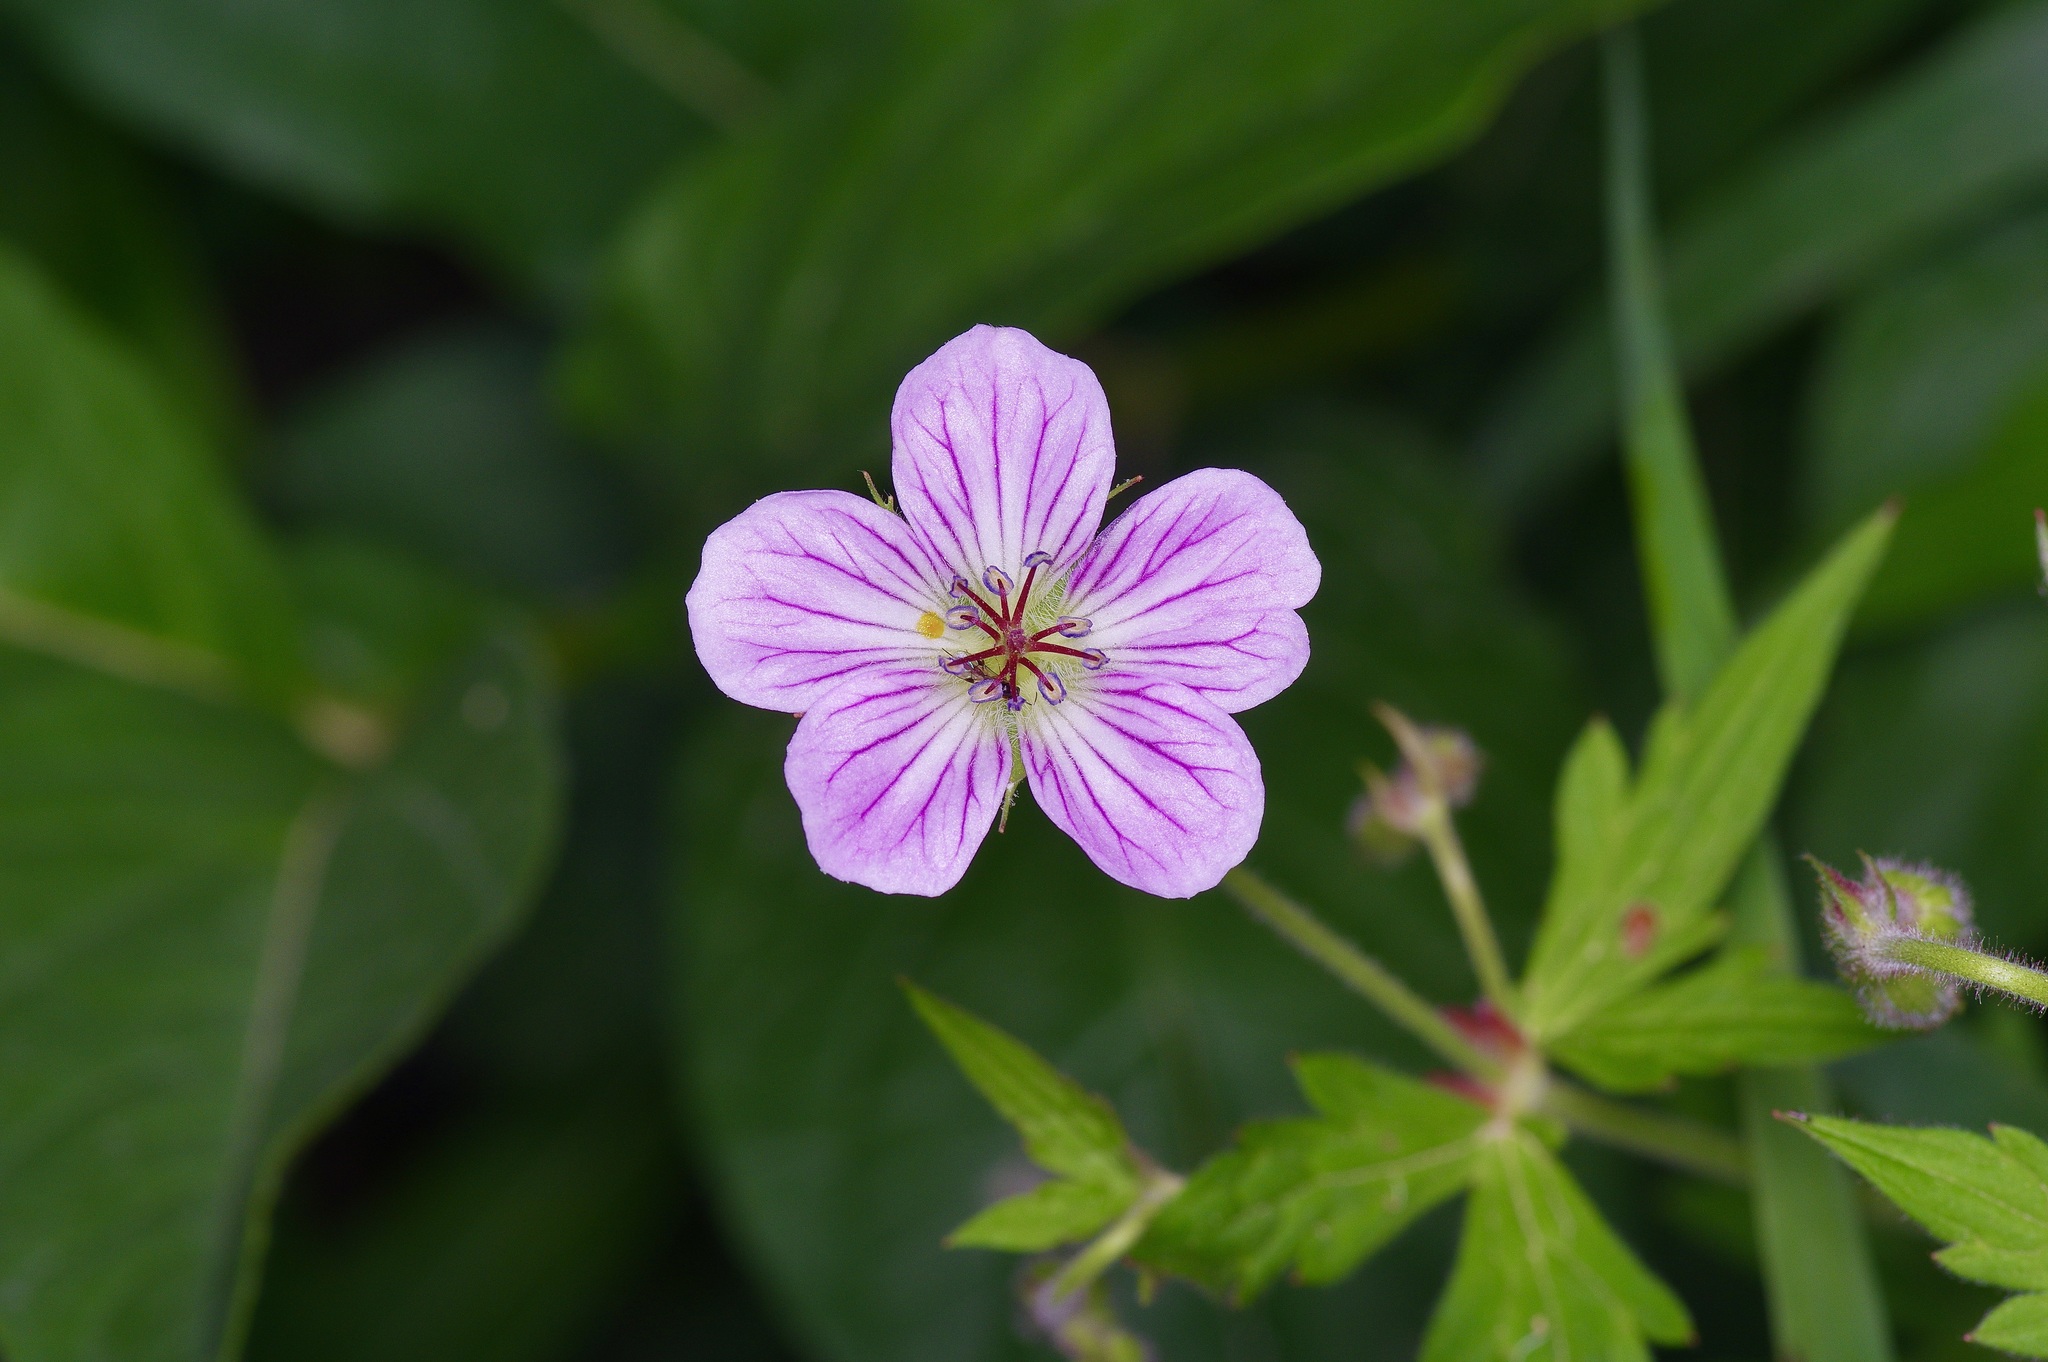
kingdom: Plantae
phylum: Tracheophyta
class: Magnoliopsida
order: Geraniales
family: Geraniaceae
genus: Geranium
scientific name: Geranium richardsonii
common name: Richardson's crane's-bill
